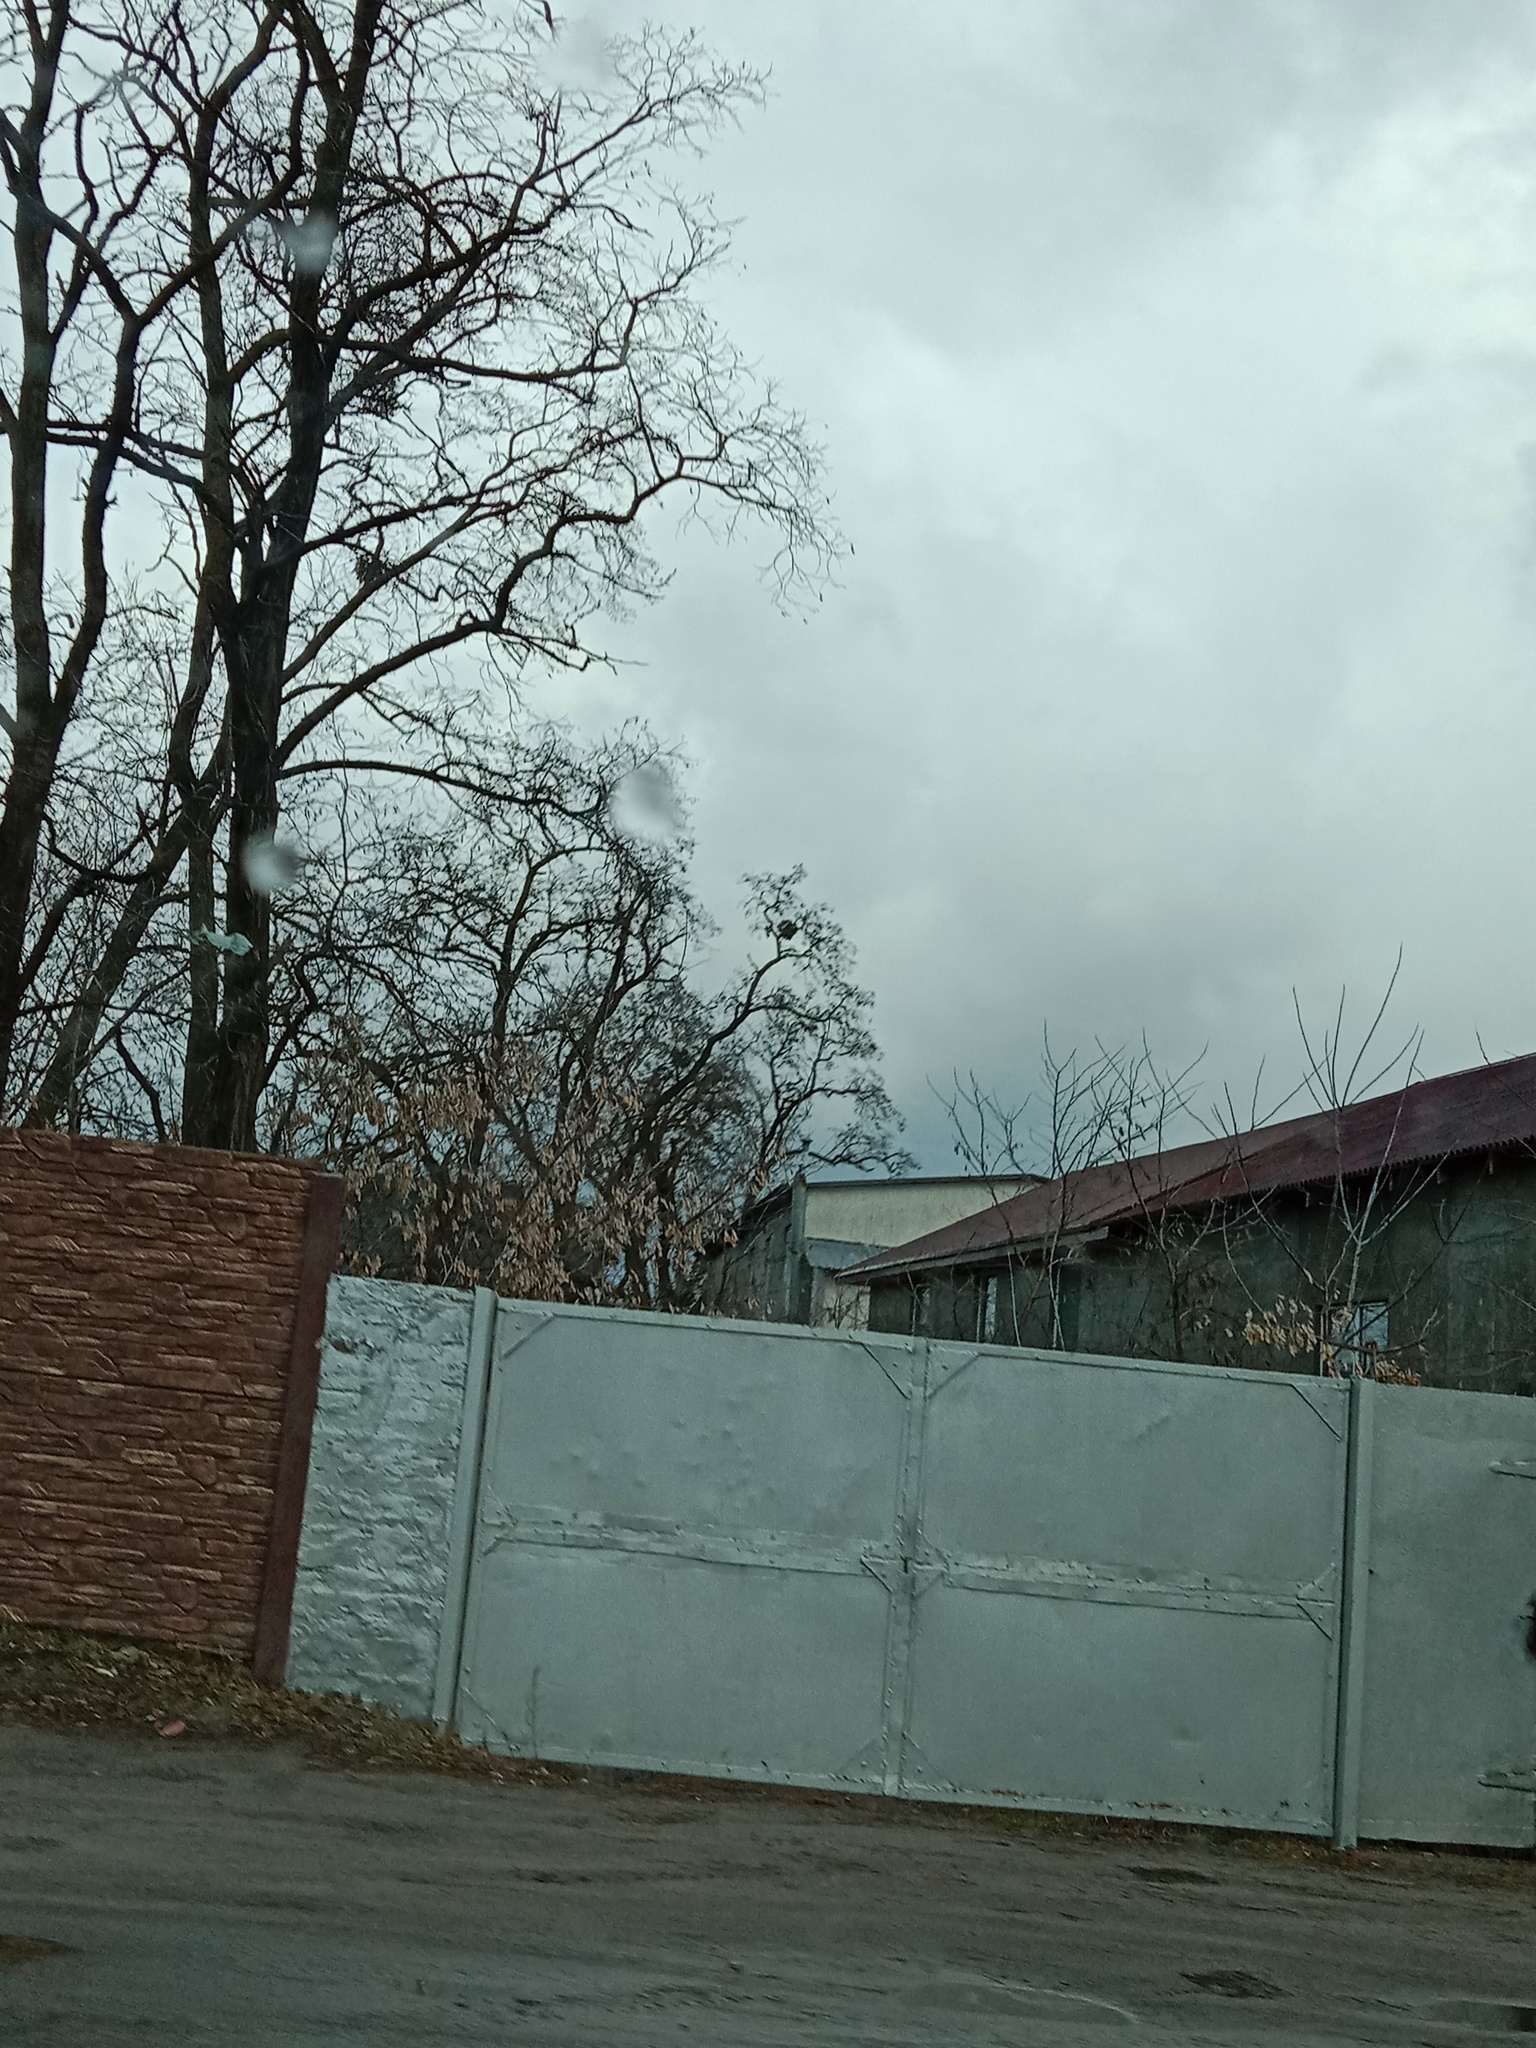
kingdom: Plantae
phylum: Tracheophyta
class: Magnoliopsida
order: Santalales
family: Viscaceae
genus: Viscum
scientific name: Viscum album
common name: Mistletoe
